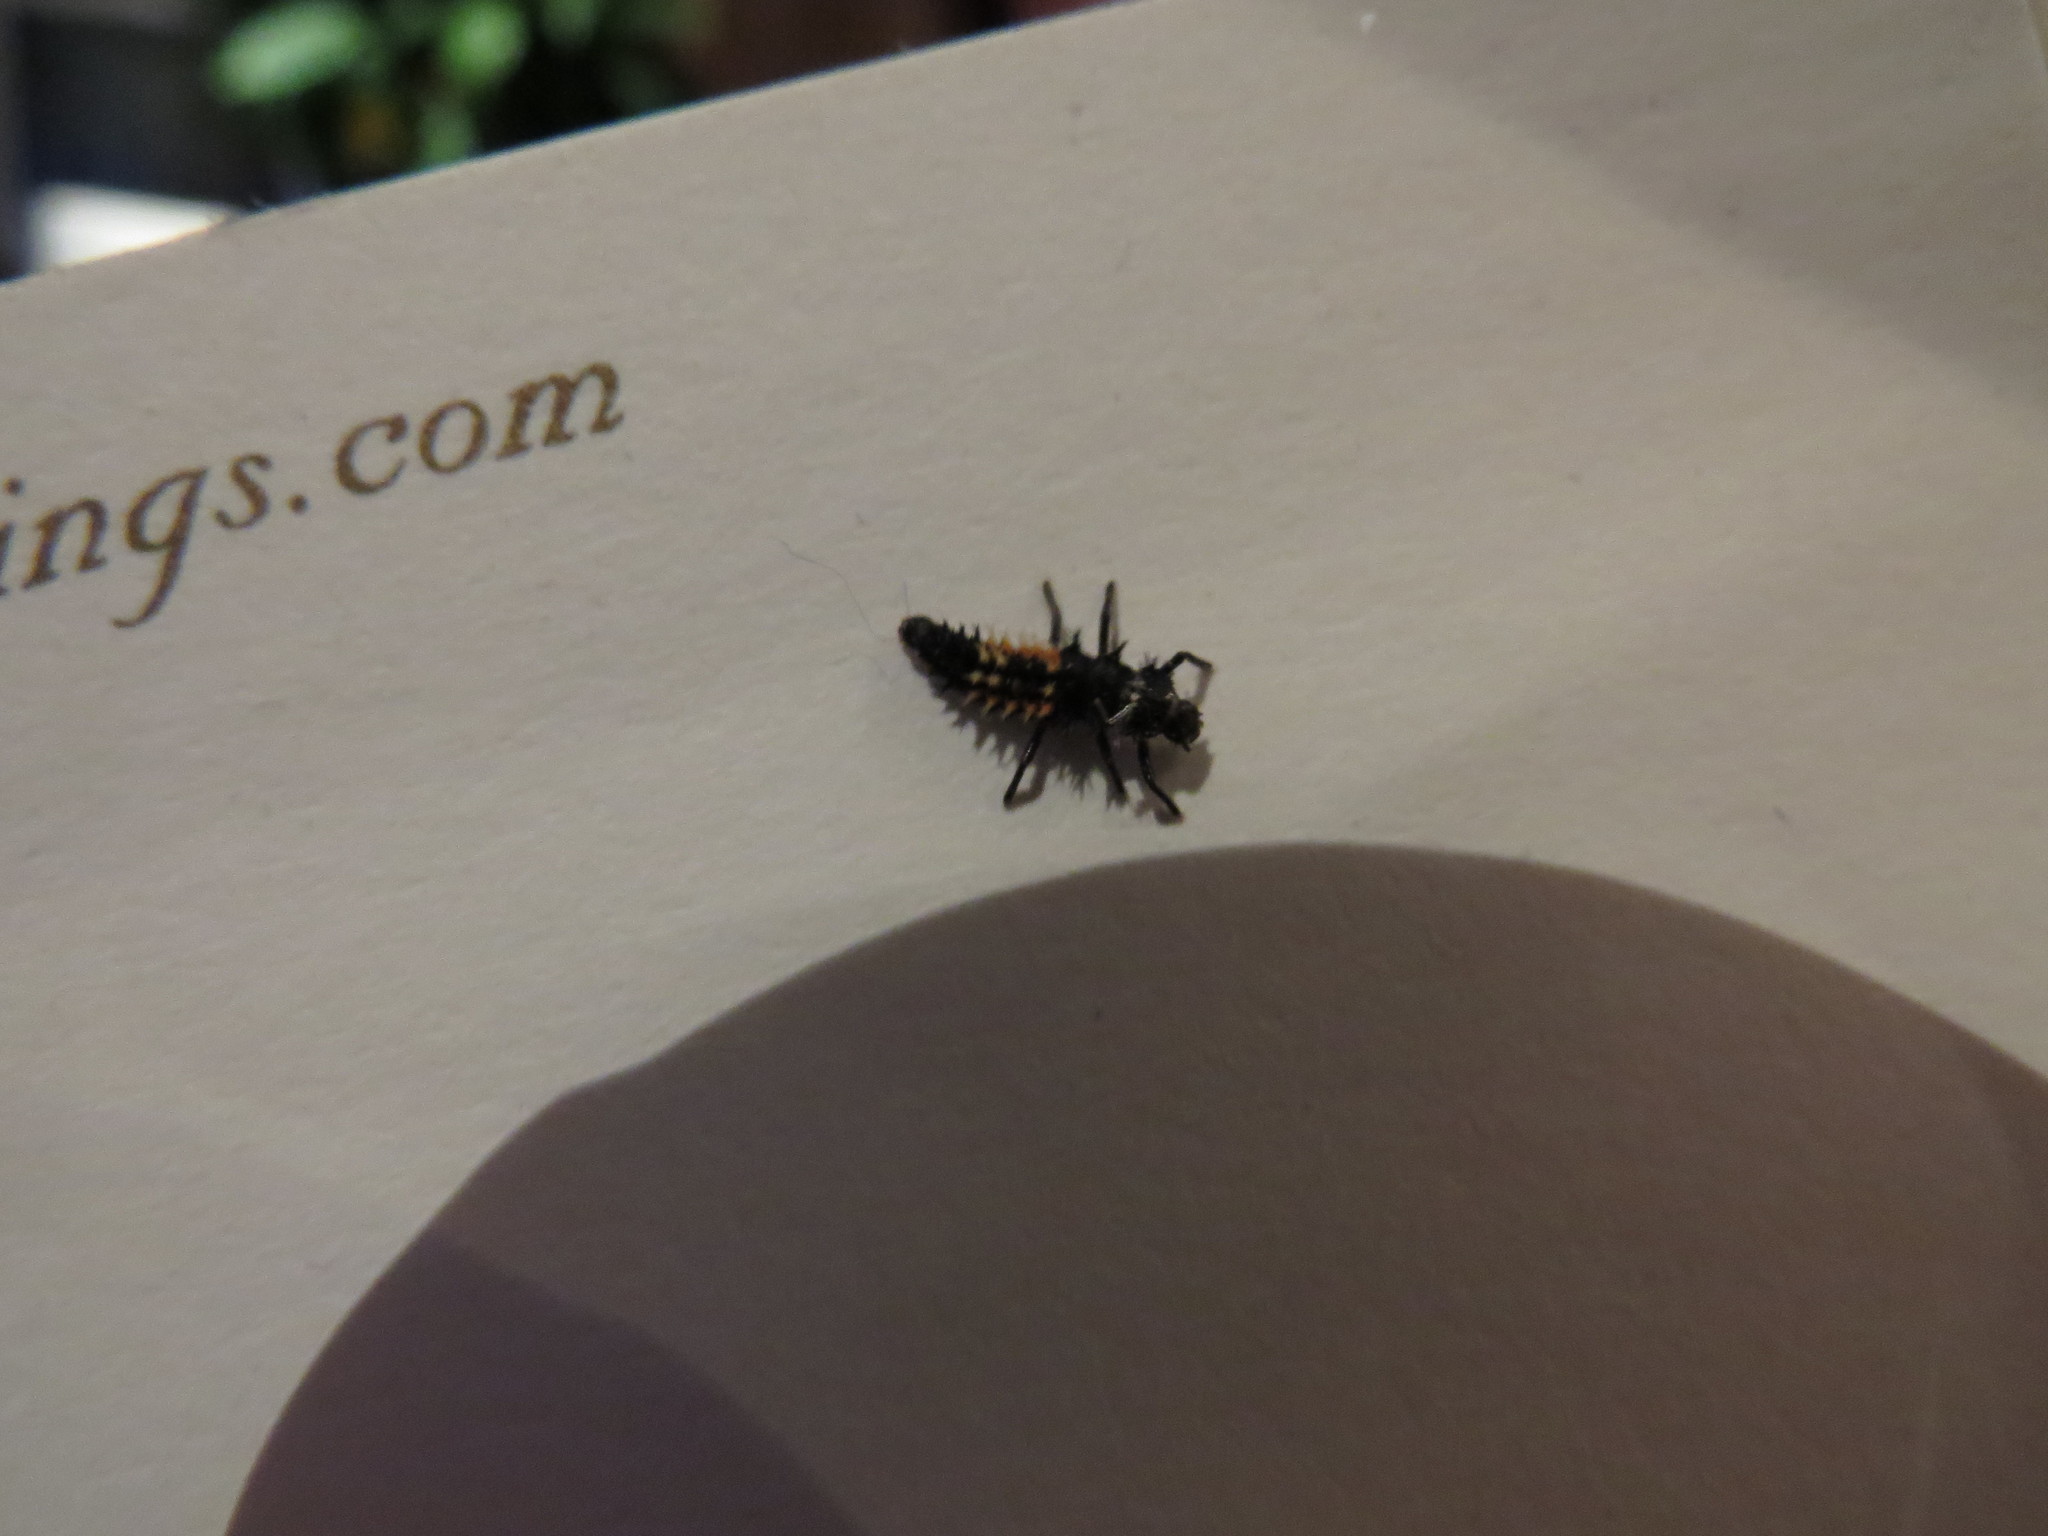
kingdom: Animalia
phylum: Arthropoda
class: Insecta
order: Coleoptera
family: Coccinellidae
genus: Harmonia
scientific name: Harmonia axyridis
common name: Harlequin ladybird
